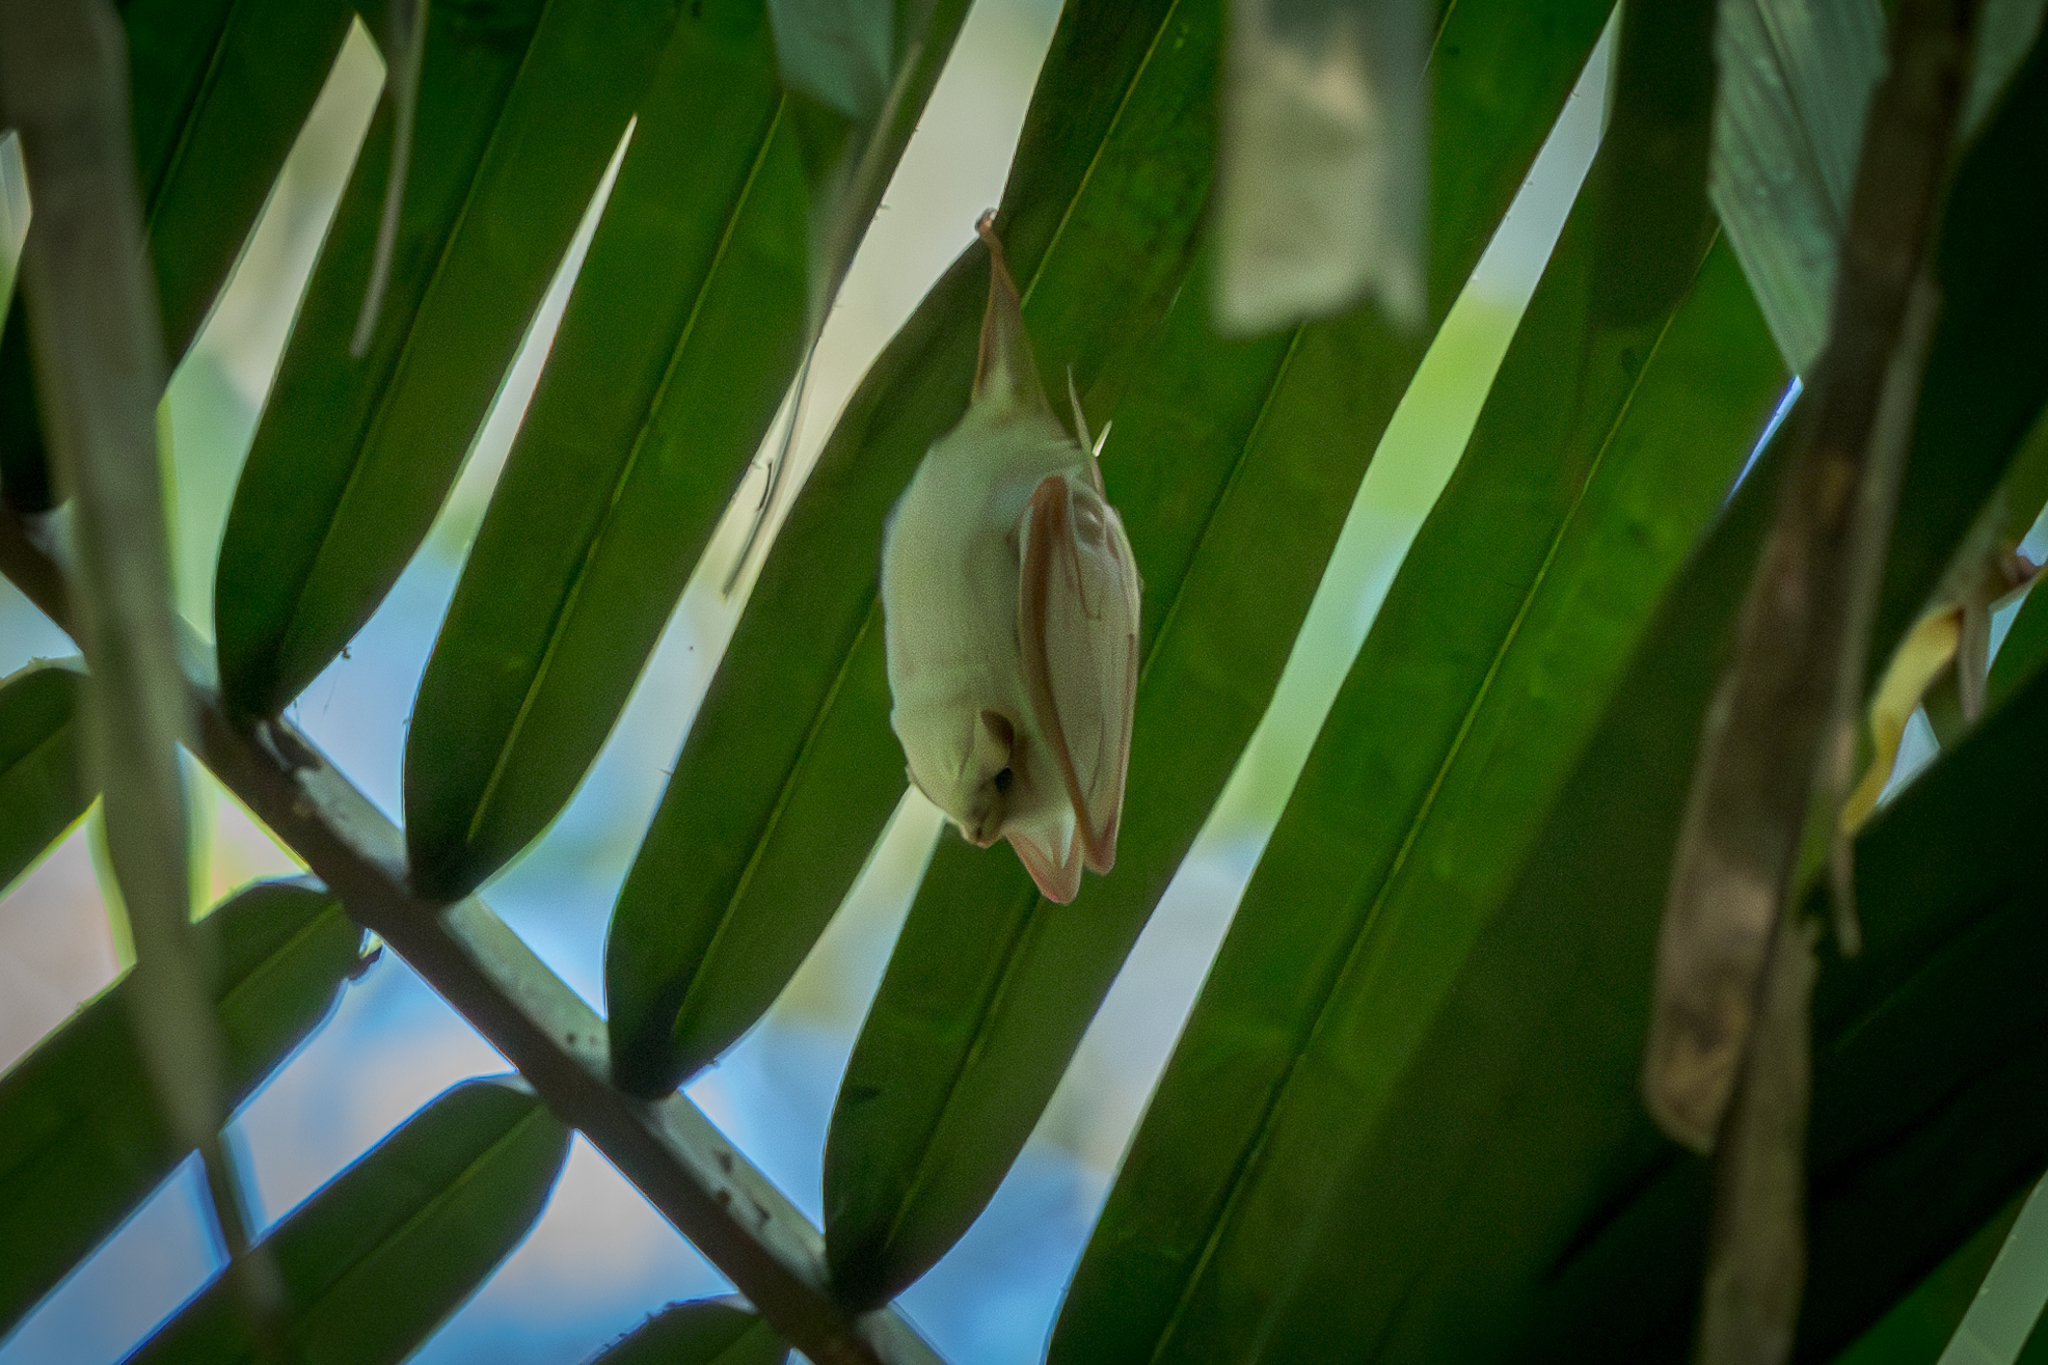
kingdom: Animalia
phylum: Chordata
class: Mammalia
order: Chiroptera
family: Emballonuridae
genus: Diclidurus
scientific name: Diclidurus albus
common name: Northern ghost bat
